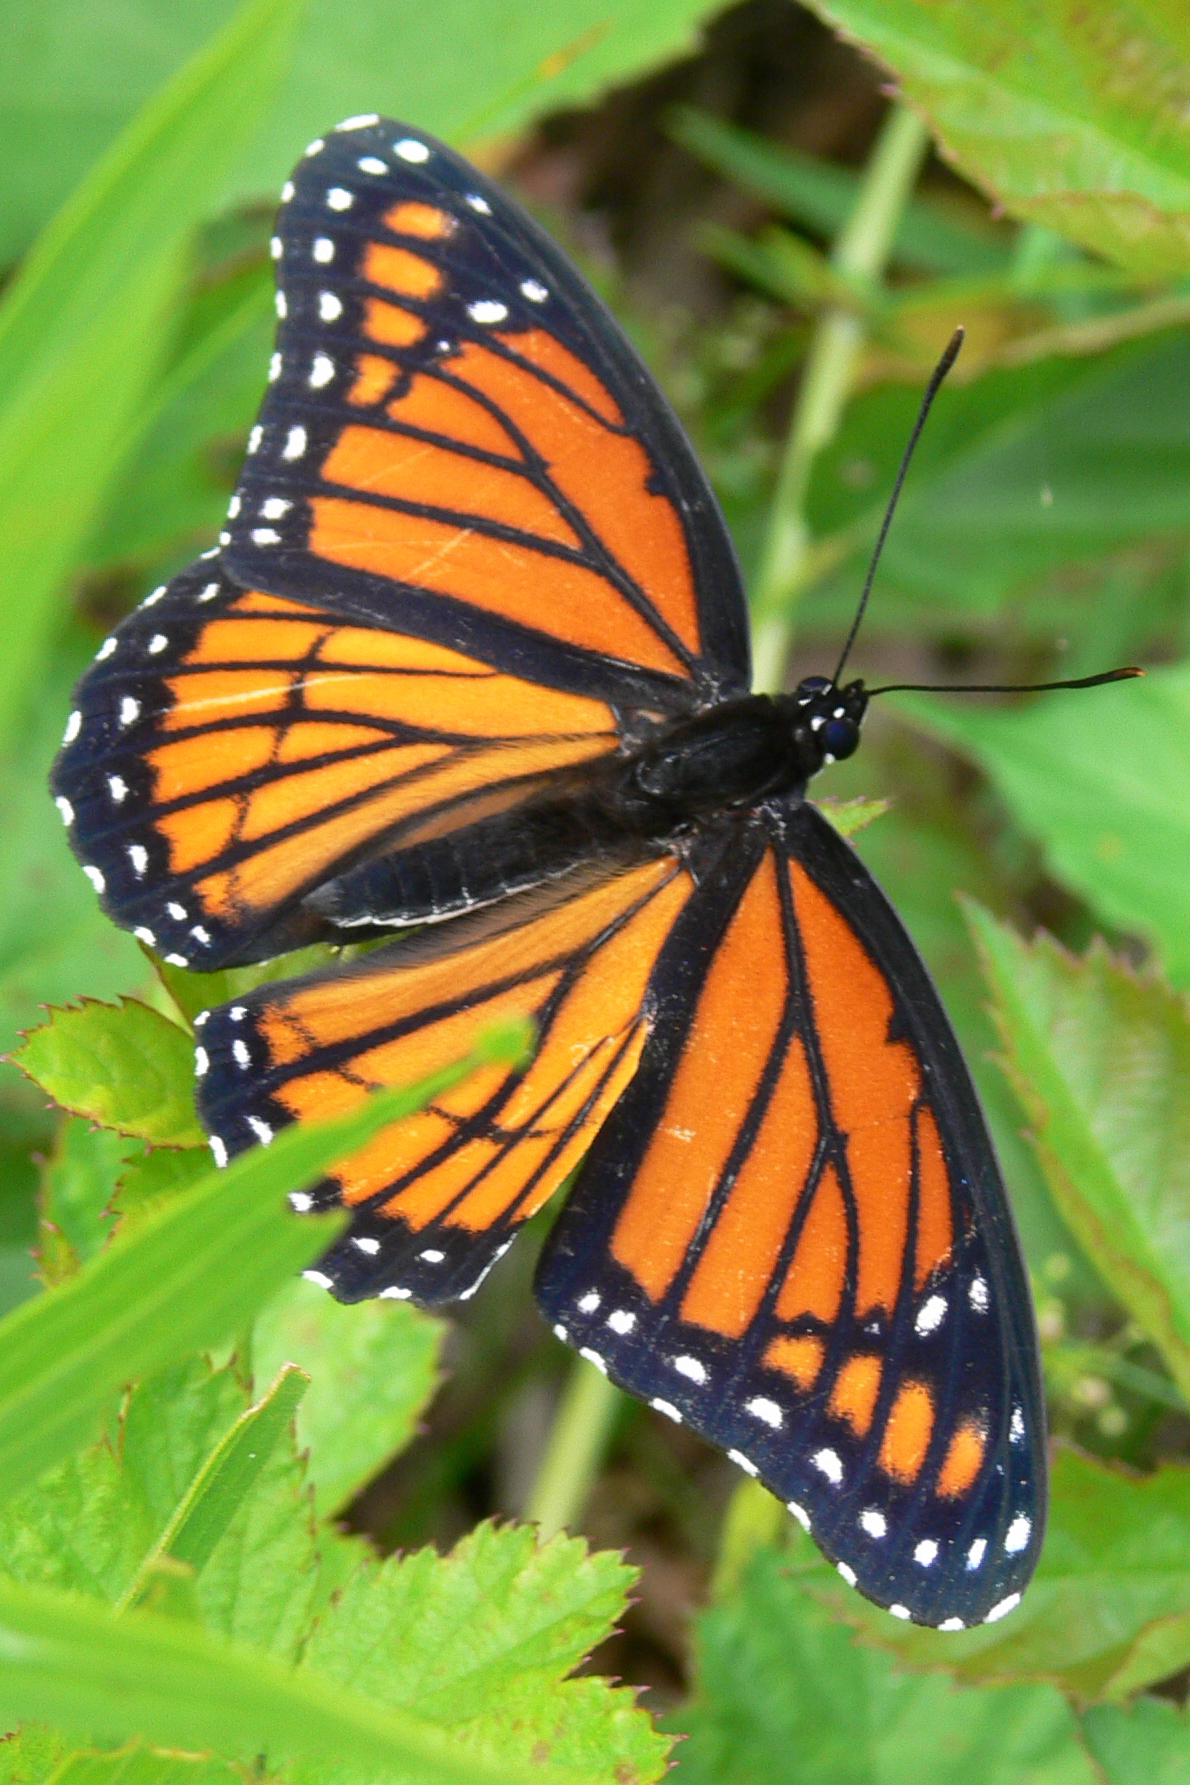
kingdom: Animalia
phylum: Arthropoda
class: Insecta
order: Lepidoptera
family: Nymphalidae
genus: Limenitis
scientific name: Limenitis archippus
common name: Viceroy
